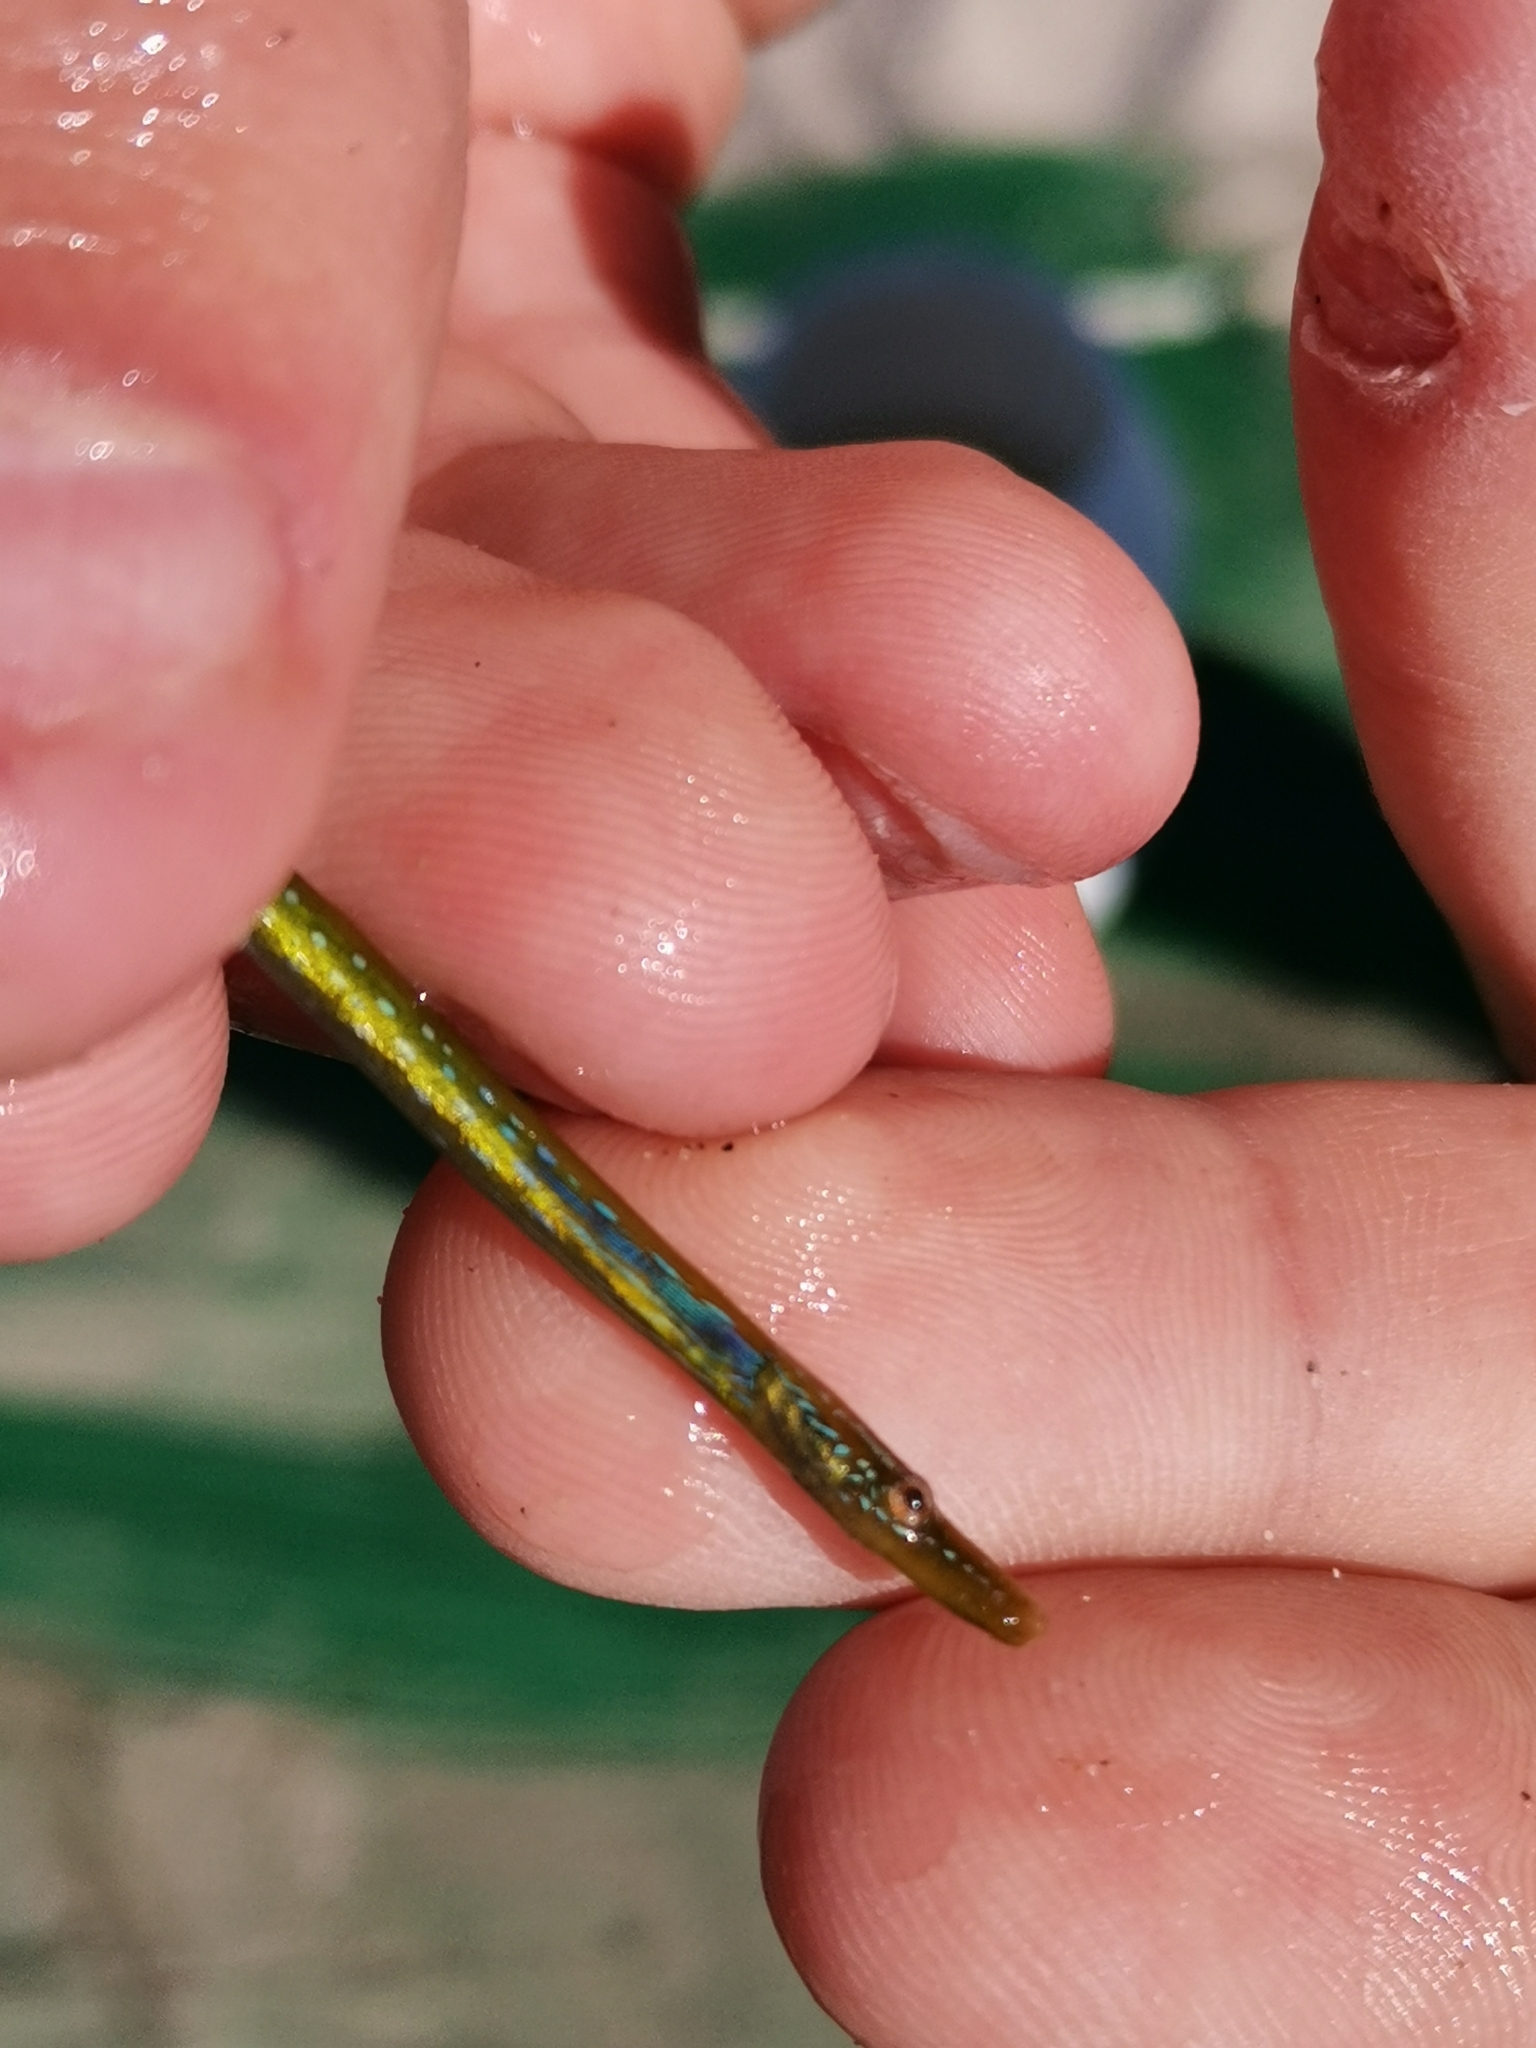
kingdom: Animalia
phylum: Chordata
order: Syngnathiformes
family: Syngnathidae
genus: Nerophis
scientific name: Nerophis ophidion
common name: Straight-nosed pipefish
